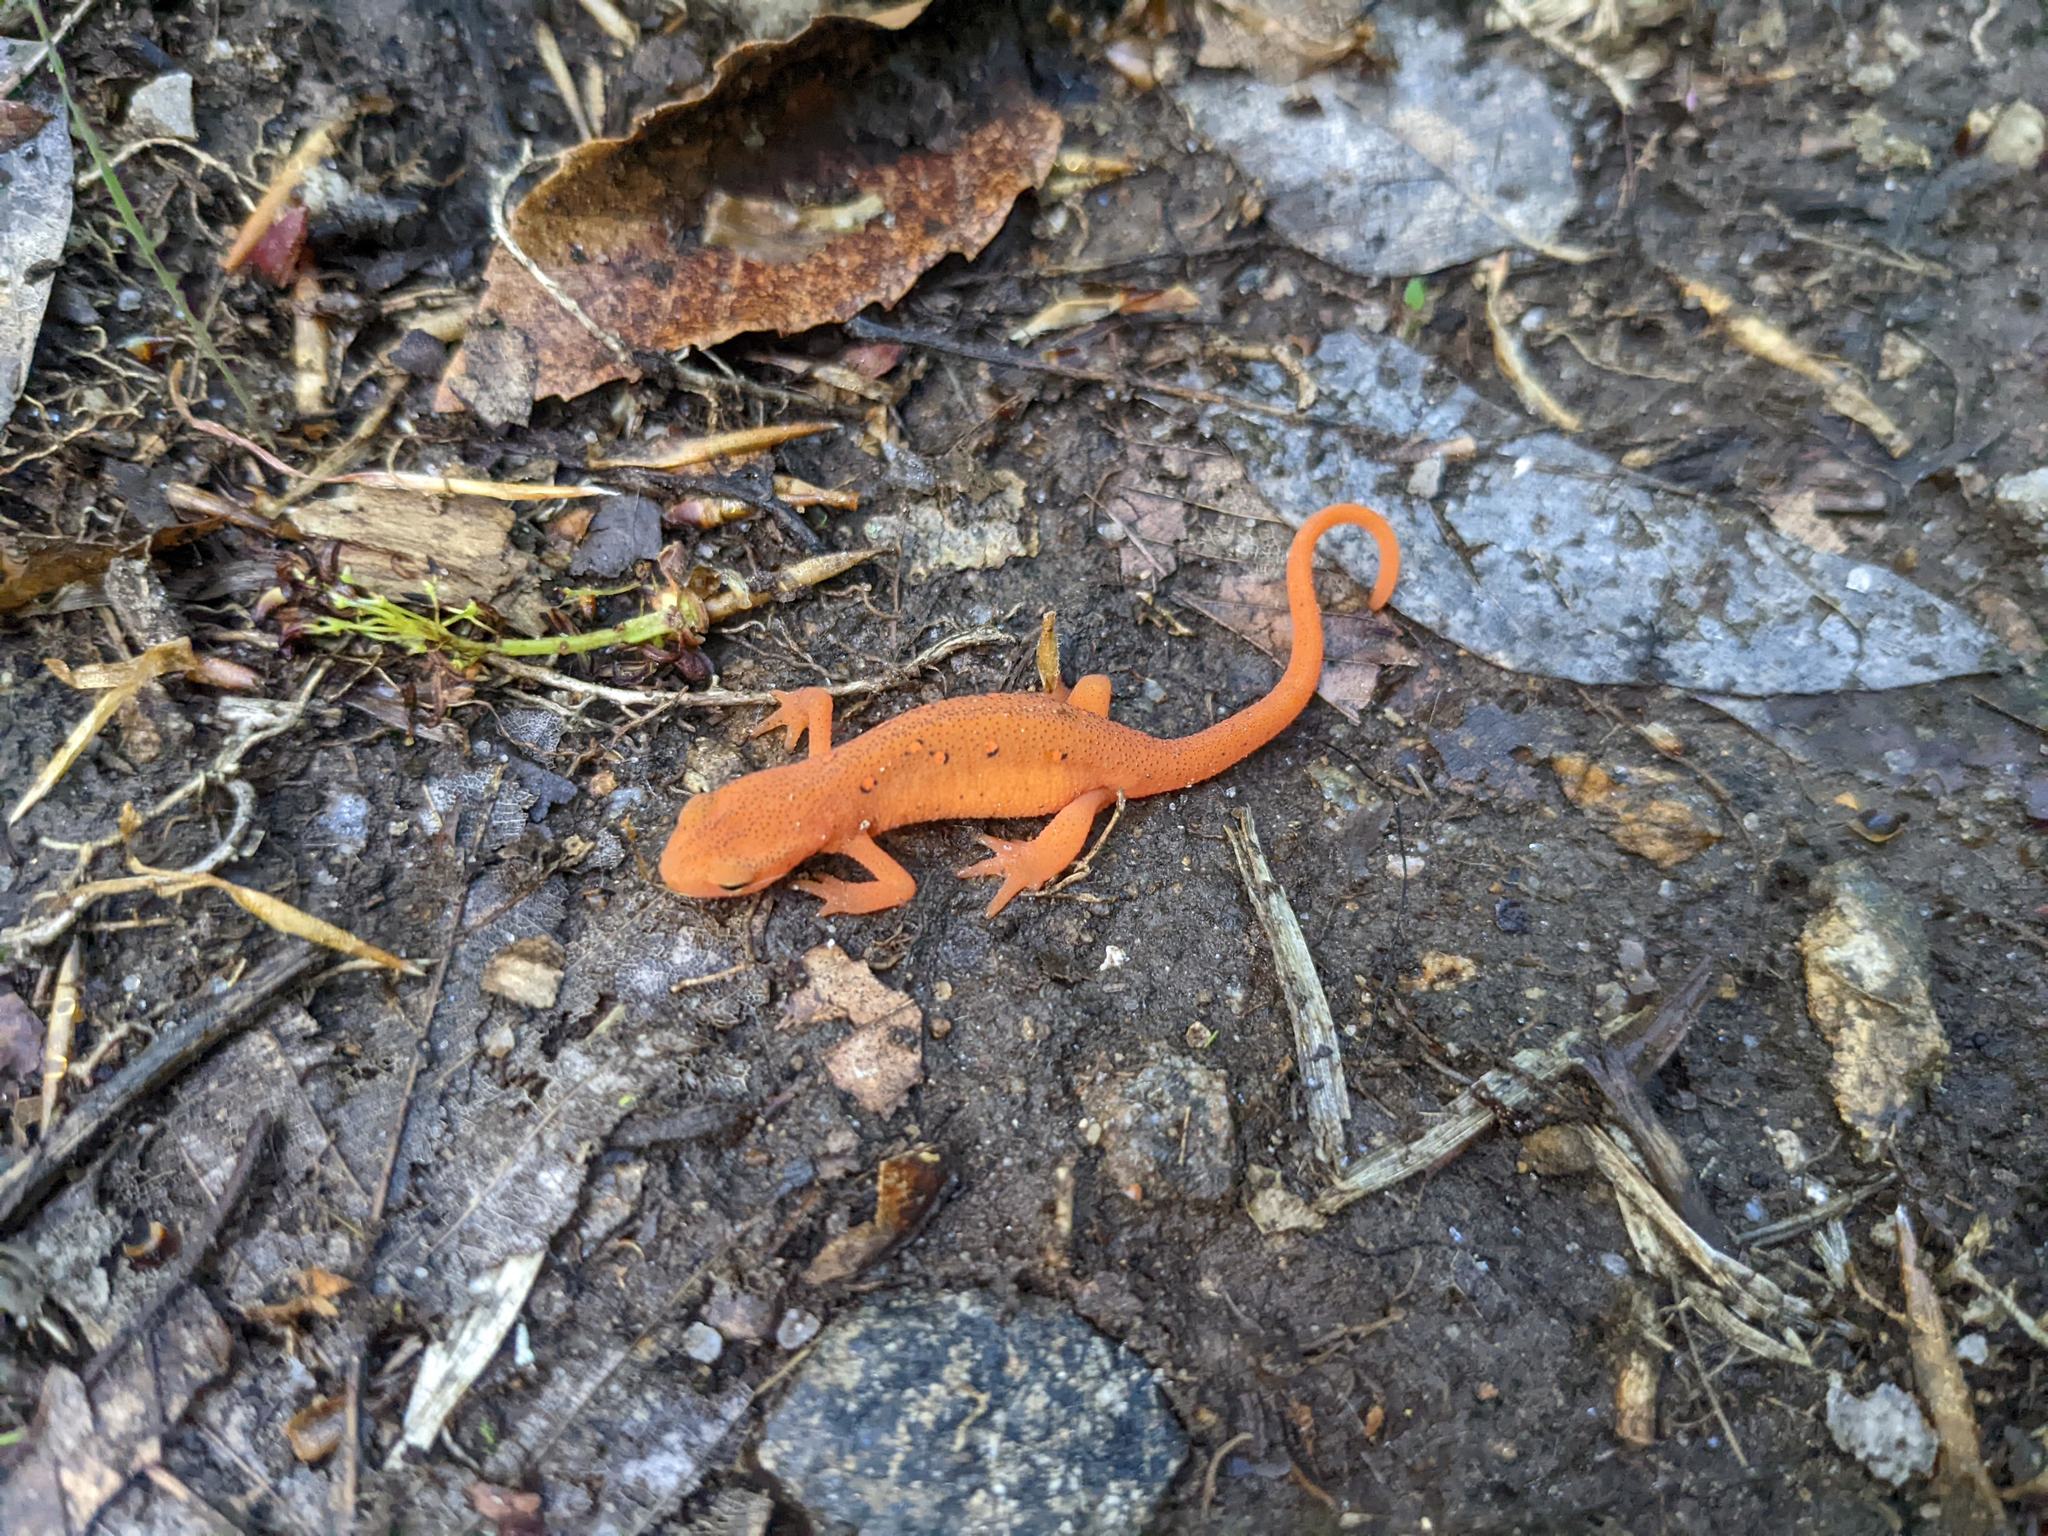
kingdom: Animalia
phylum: Chordata
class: Amphibia
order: Caudata
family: Salamandridae
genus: Notophthalmus
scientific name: Notophthalmus viridescens
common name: Eastern newt
